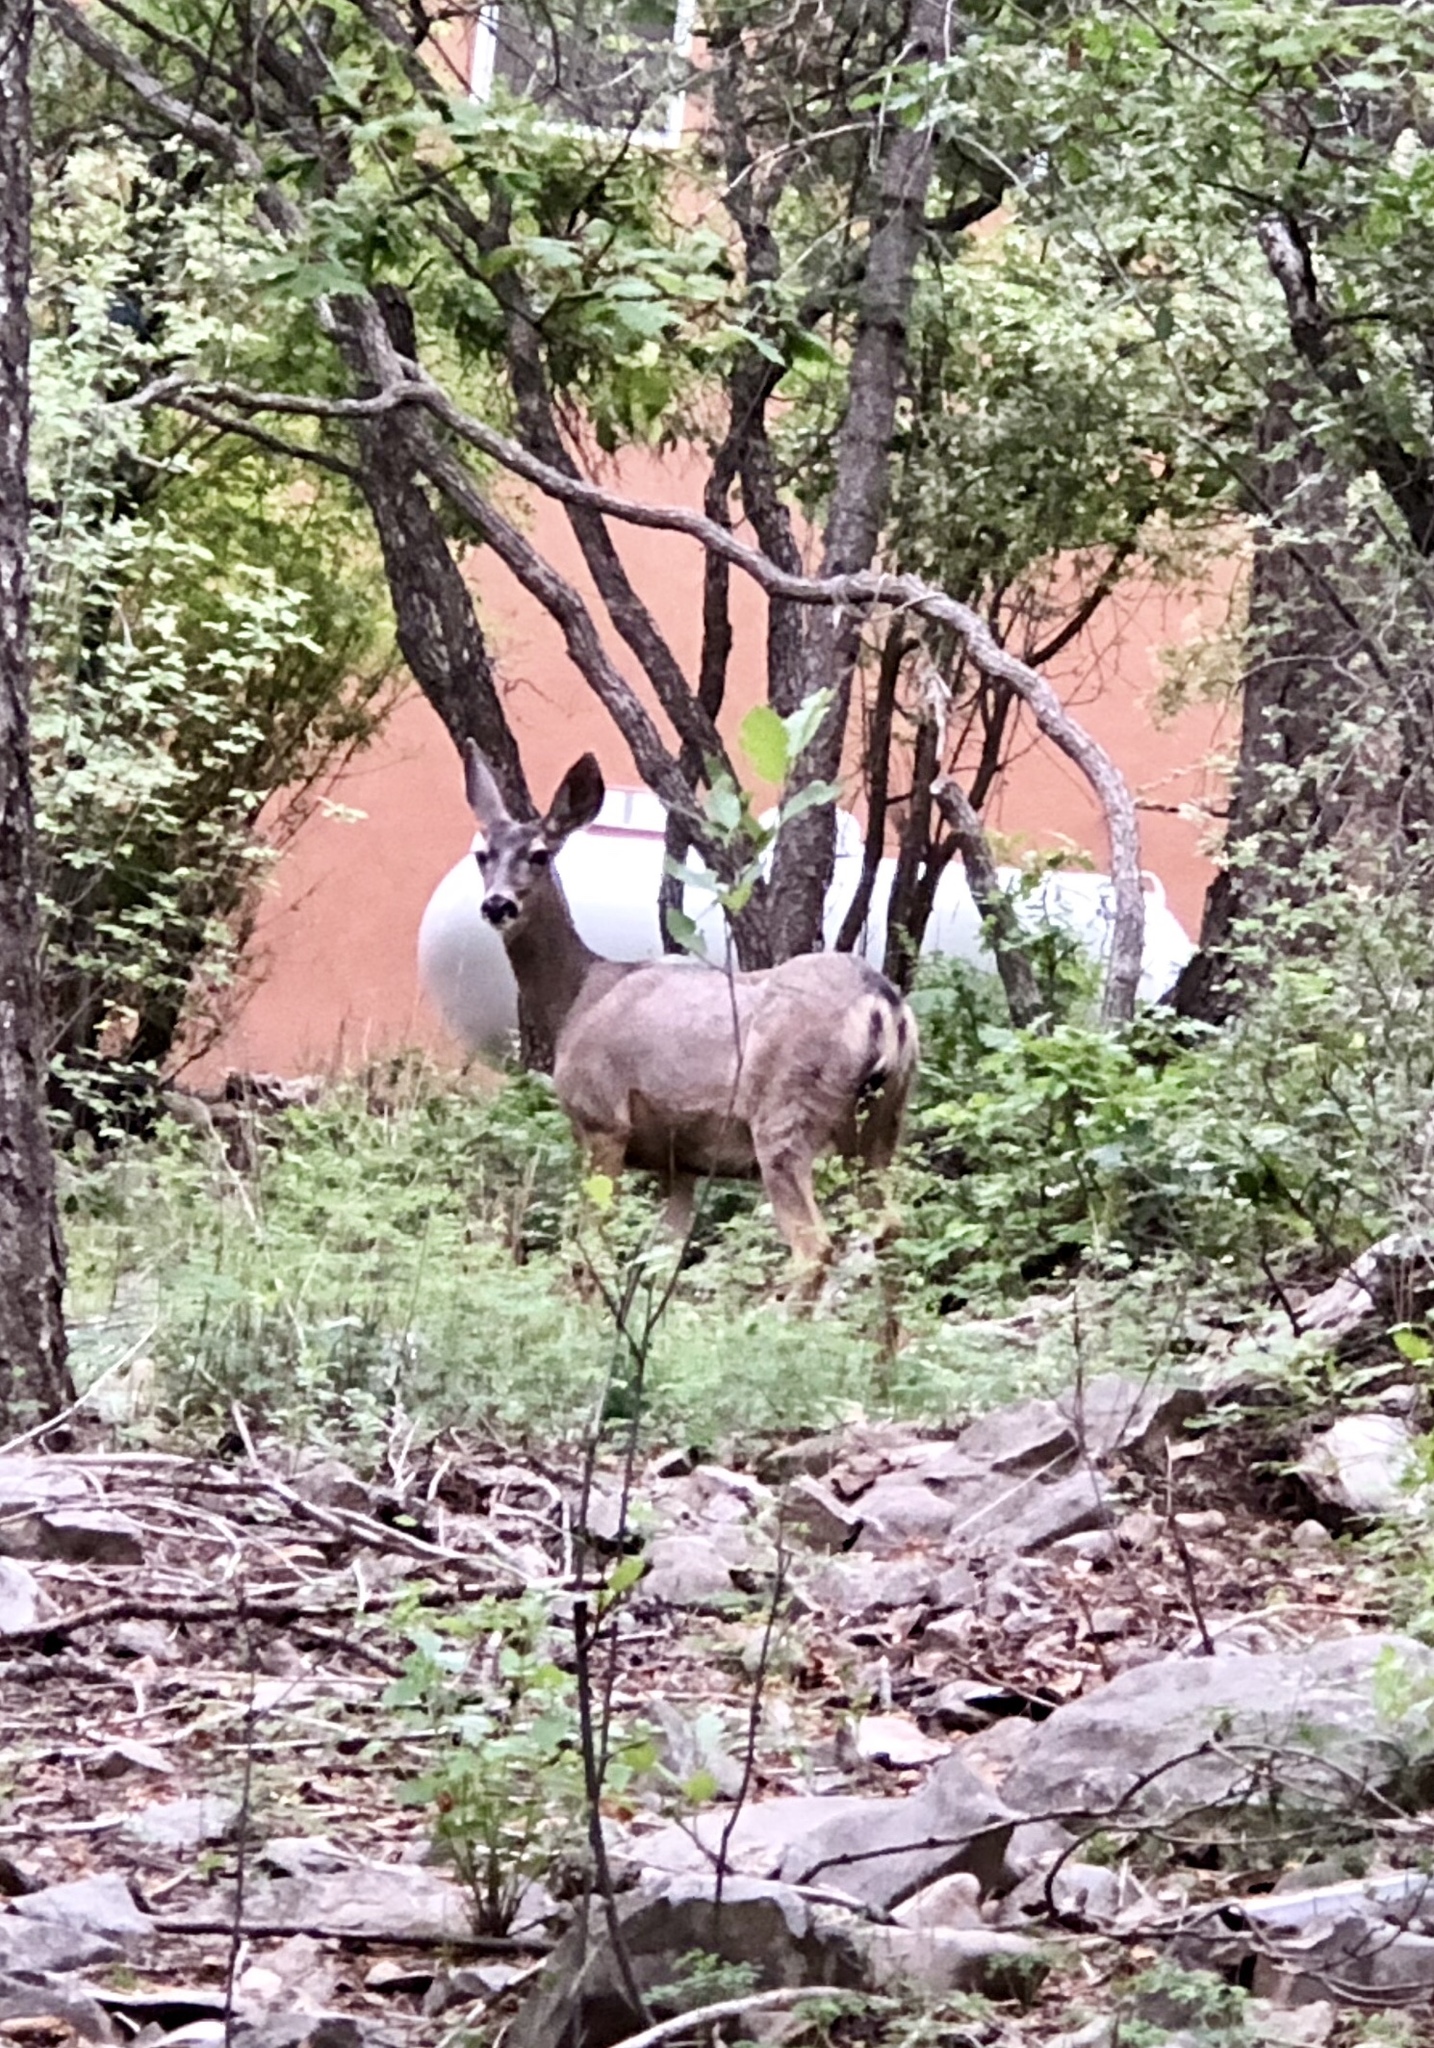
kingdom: Animalia
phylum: Chordata
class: Mammalia
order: Artiodactyla
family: Cervidae
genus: Odocoileus
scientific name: Odocoileus hemionus
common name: Mule deer
